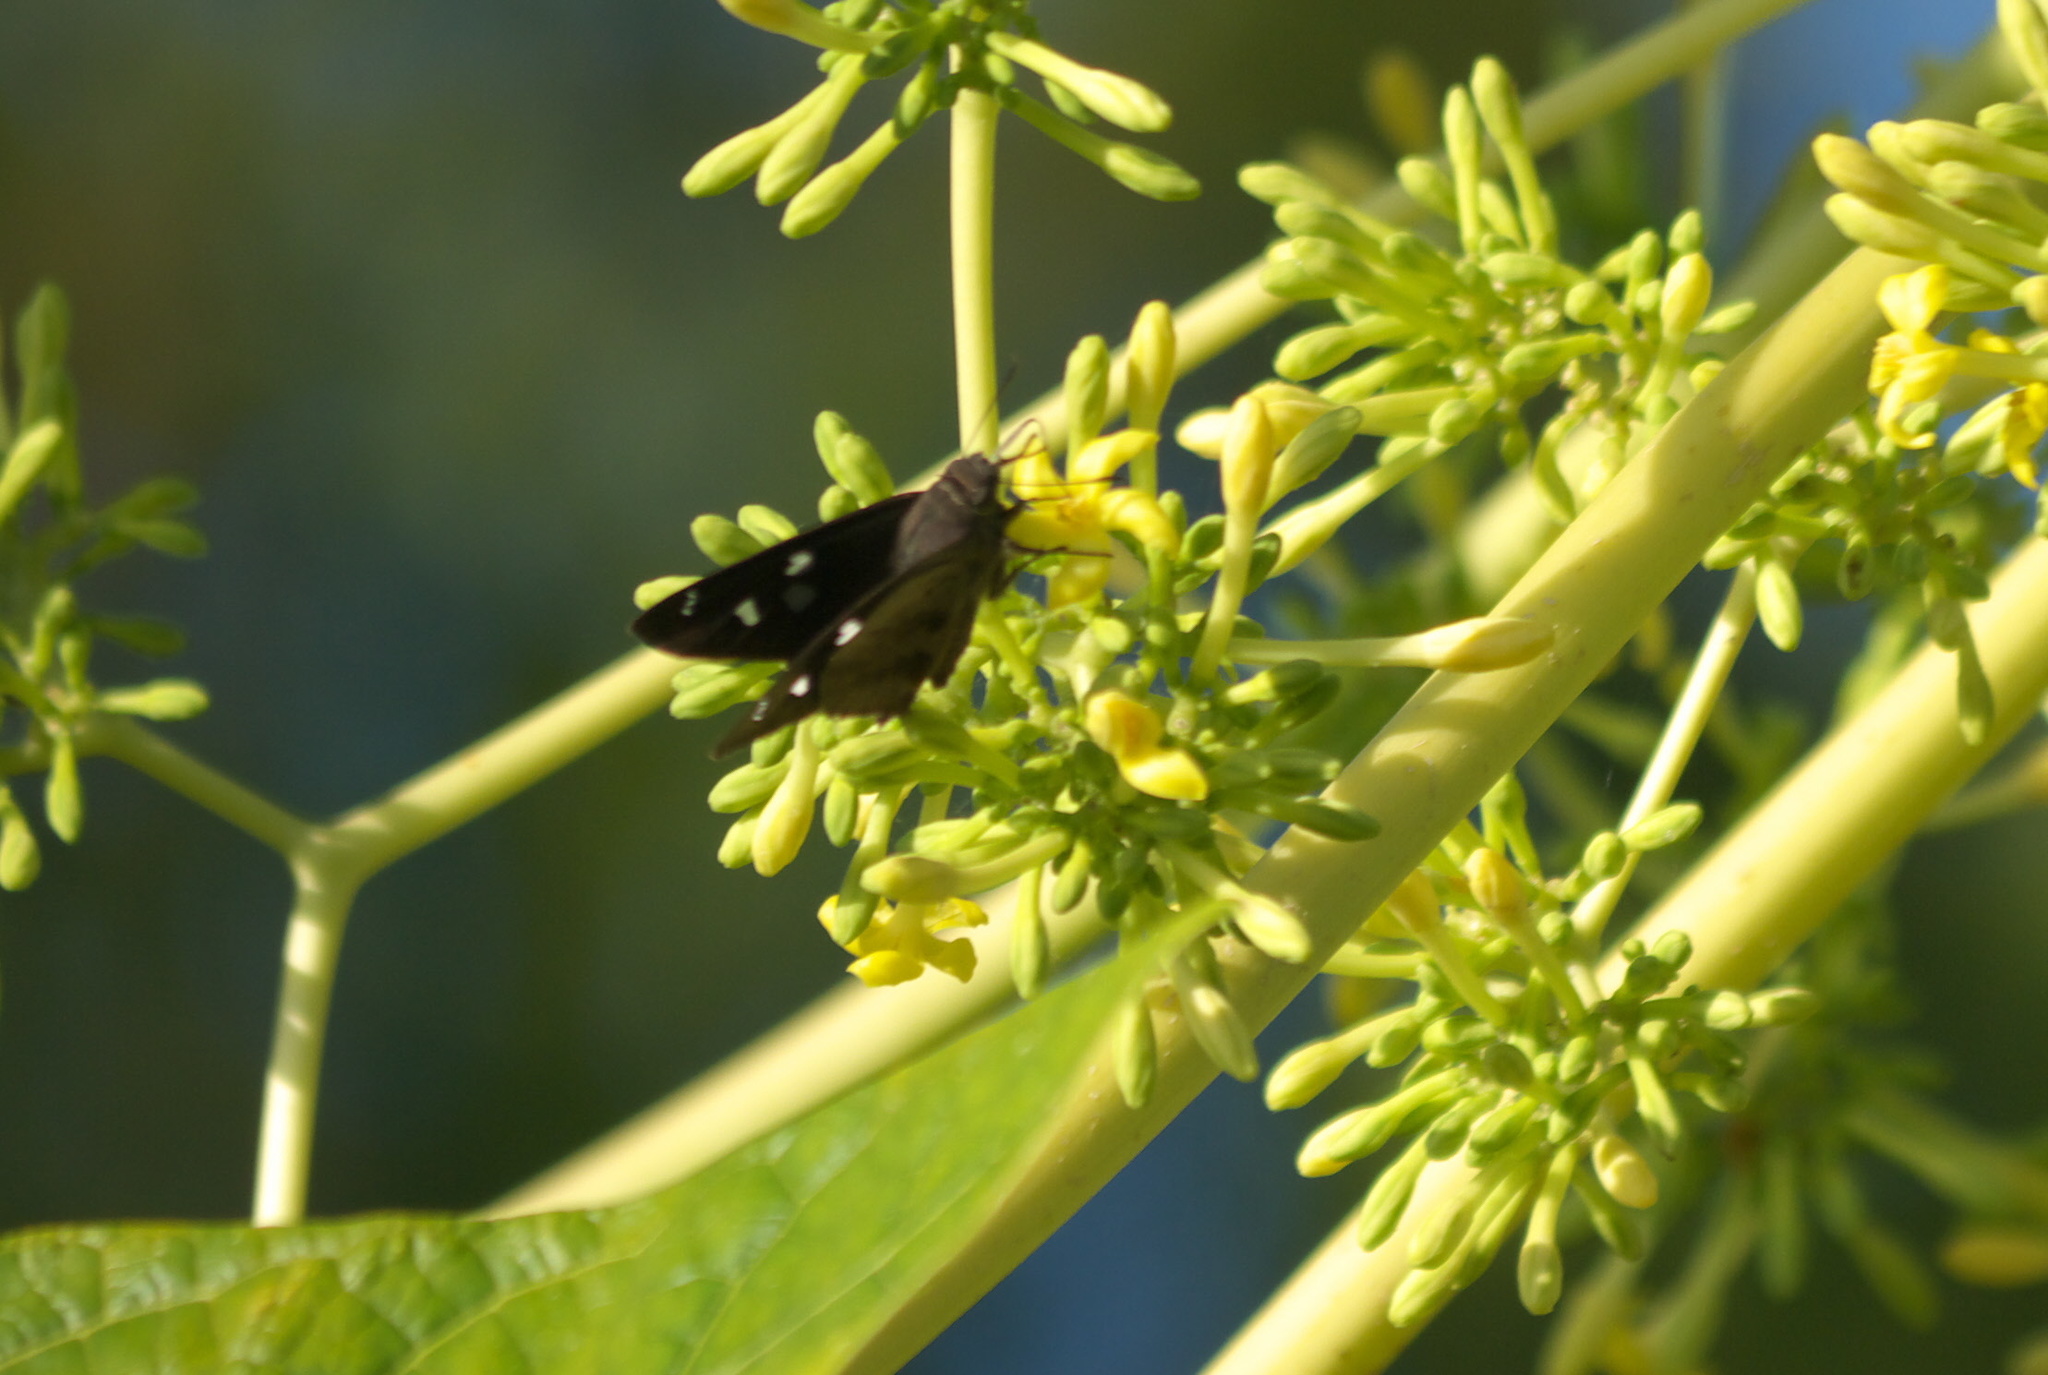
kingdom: Animalia
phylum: Arthropoda
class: Insecta
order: Lepidoptera
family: Hesperiidae
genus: Polygonus
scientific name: Polygonus leo
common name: Hammoch skipper
